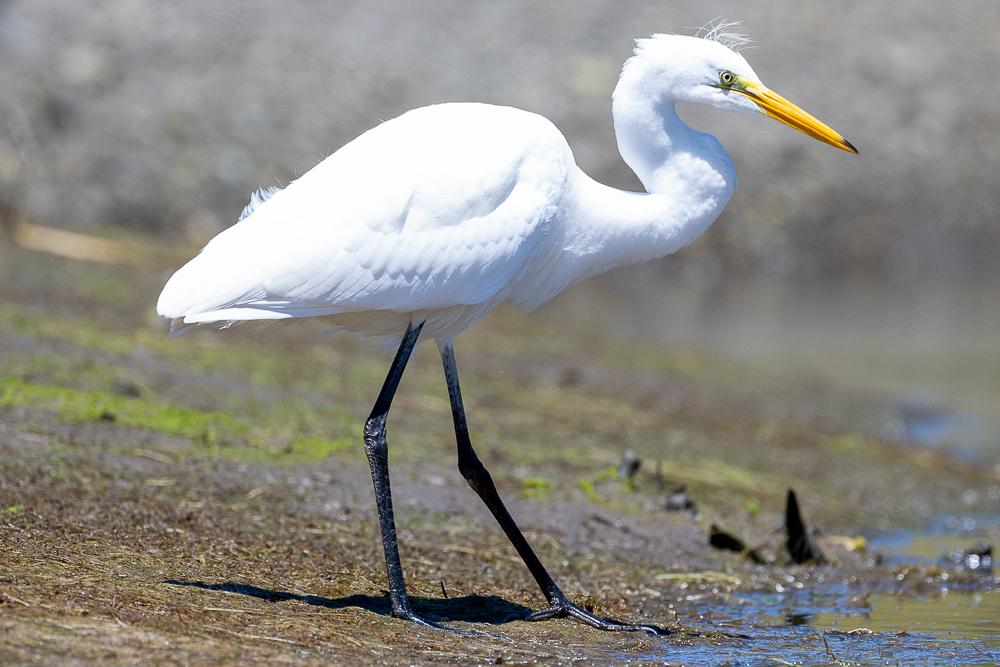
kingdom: Animalia
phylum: Chordata
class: Aves
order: Pelecaniformes
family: Ardeidae
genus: Ardea
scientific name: Ardea alba
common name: Great egret
